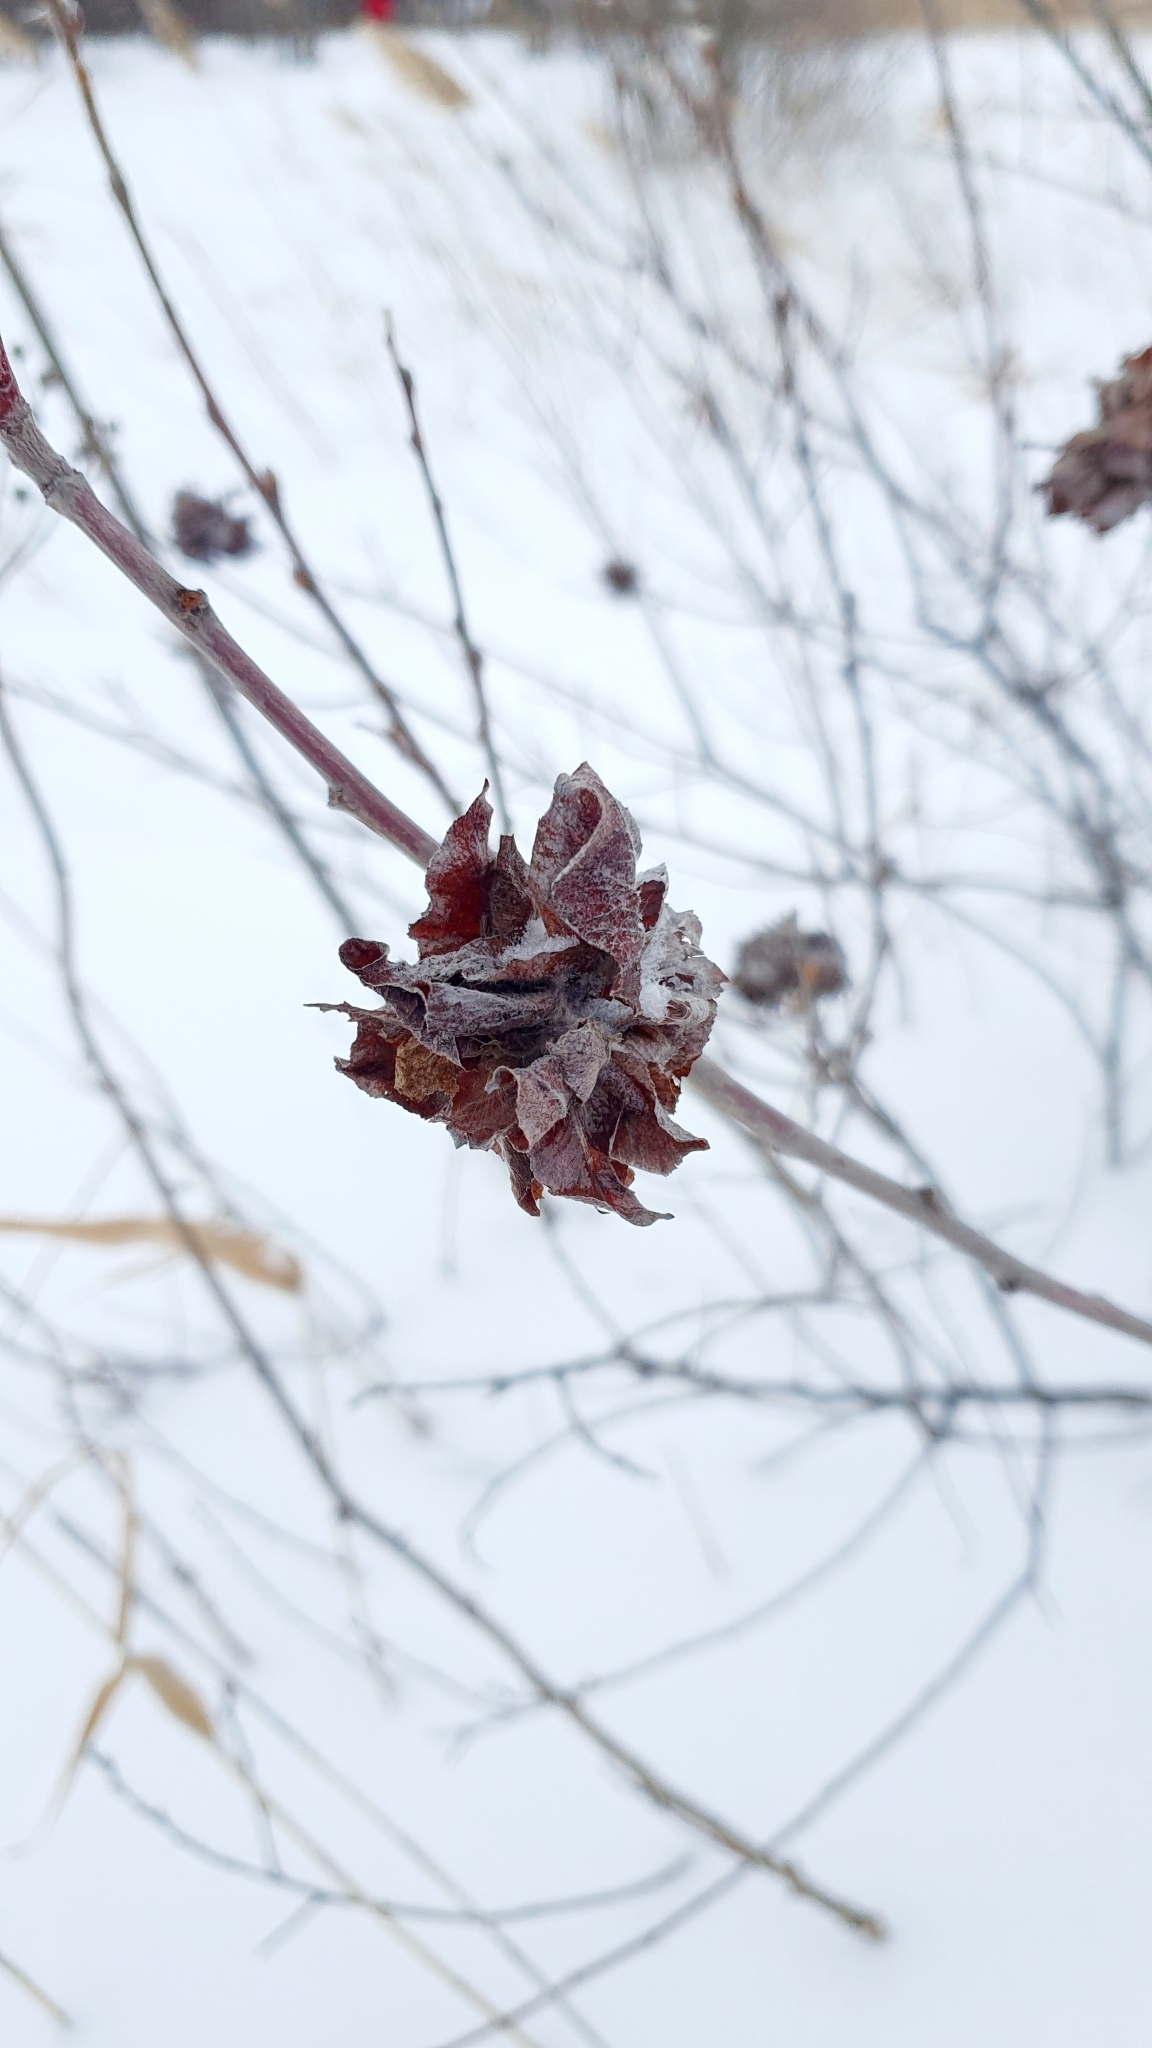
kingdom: Animalia
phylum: Arthropoda
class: Insecta
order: Diptera
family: Cecidomyiidae
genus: Rabdophaga
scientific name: Rabdophaga rosaria
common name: Willow rose gall midge
